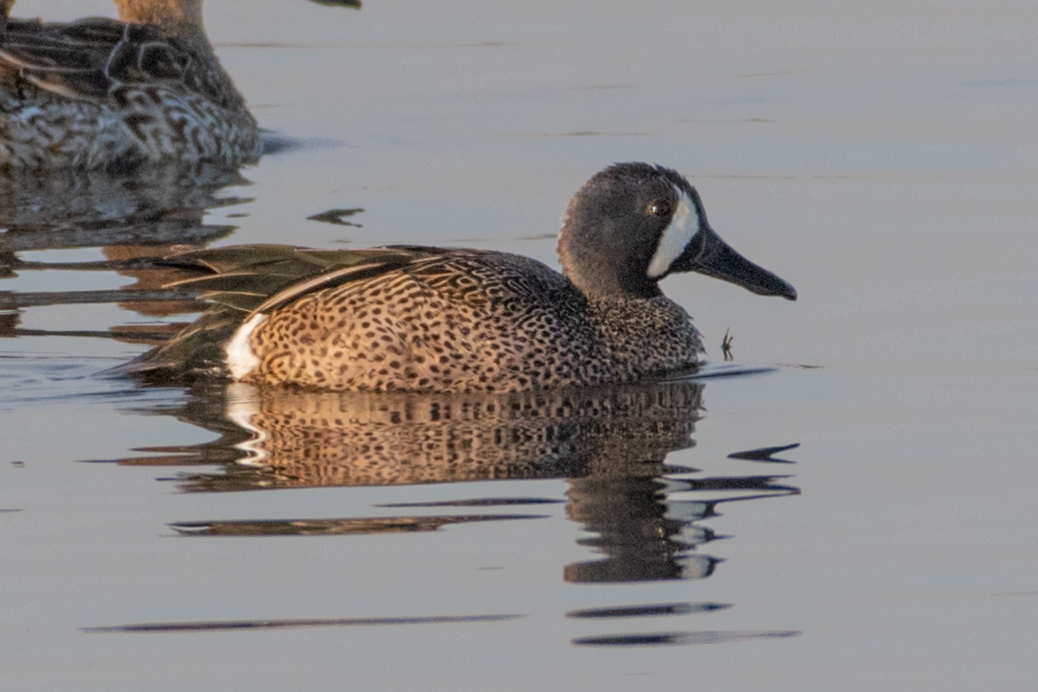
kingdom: Animalia
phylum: Chordata
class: Aves
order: Anseriformes
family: Anatidae
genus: Spatula
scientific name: Spatula discors
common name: Blue-winged teal
